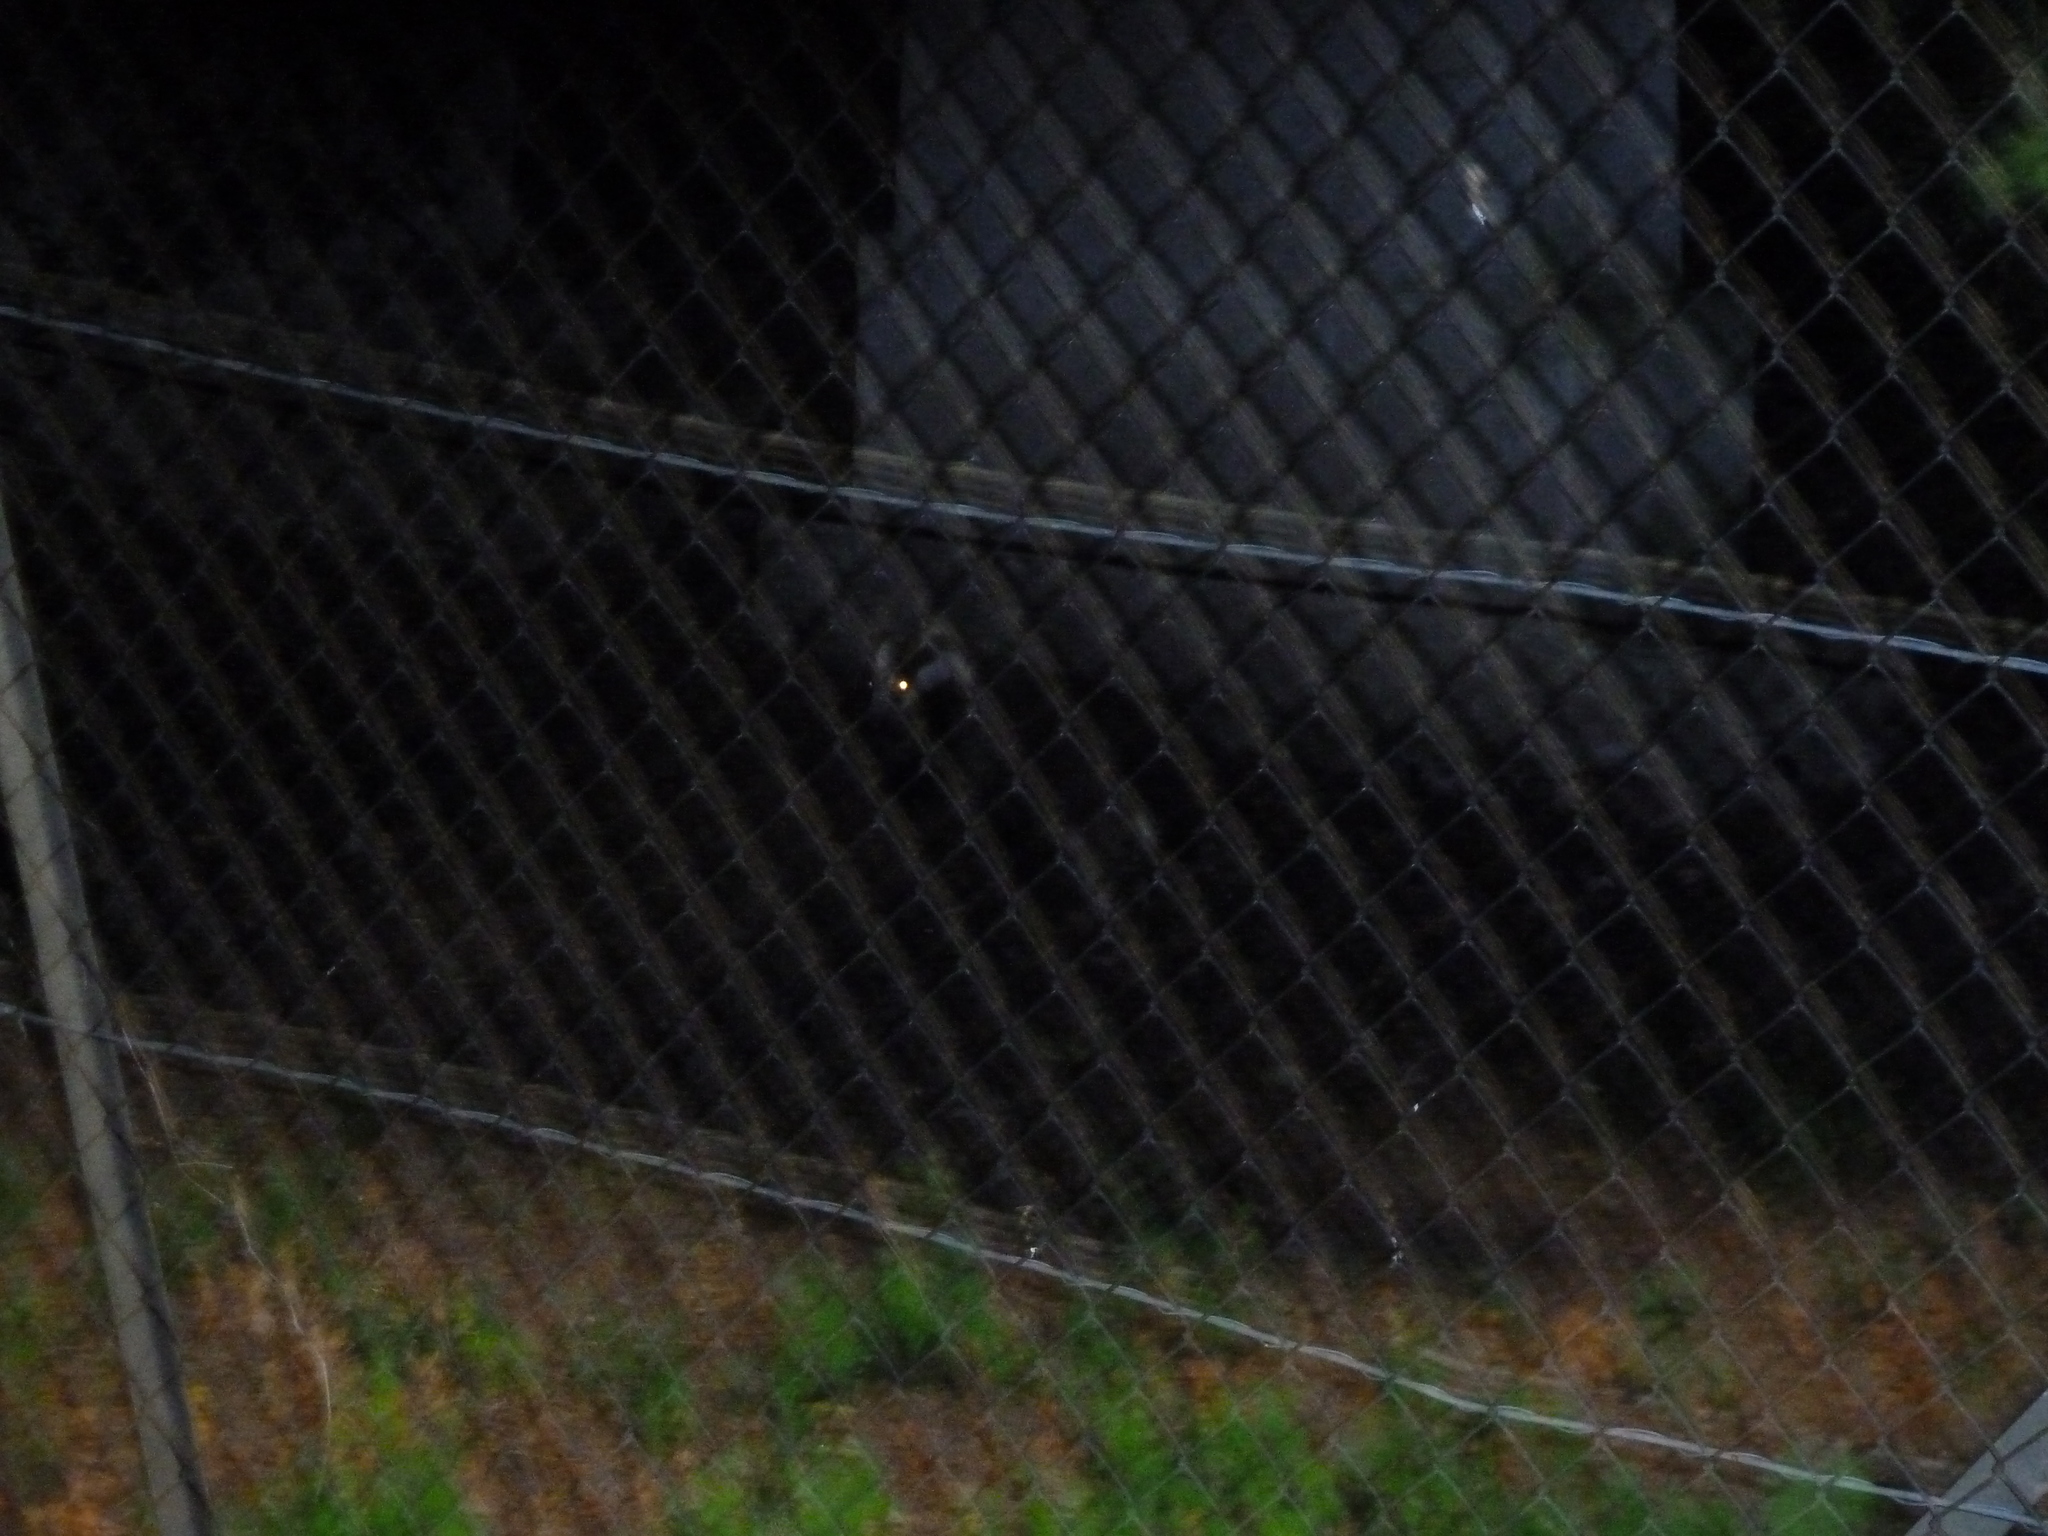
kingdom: Animalia
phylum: Chordata
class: Mammalia
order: Carnivora
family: Mustelidae
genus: Meles
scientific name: Meles meles
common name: Eurasian badger
